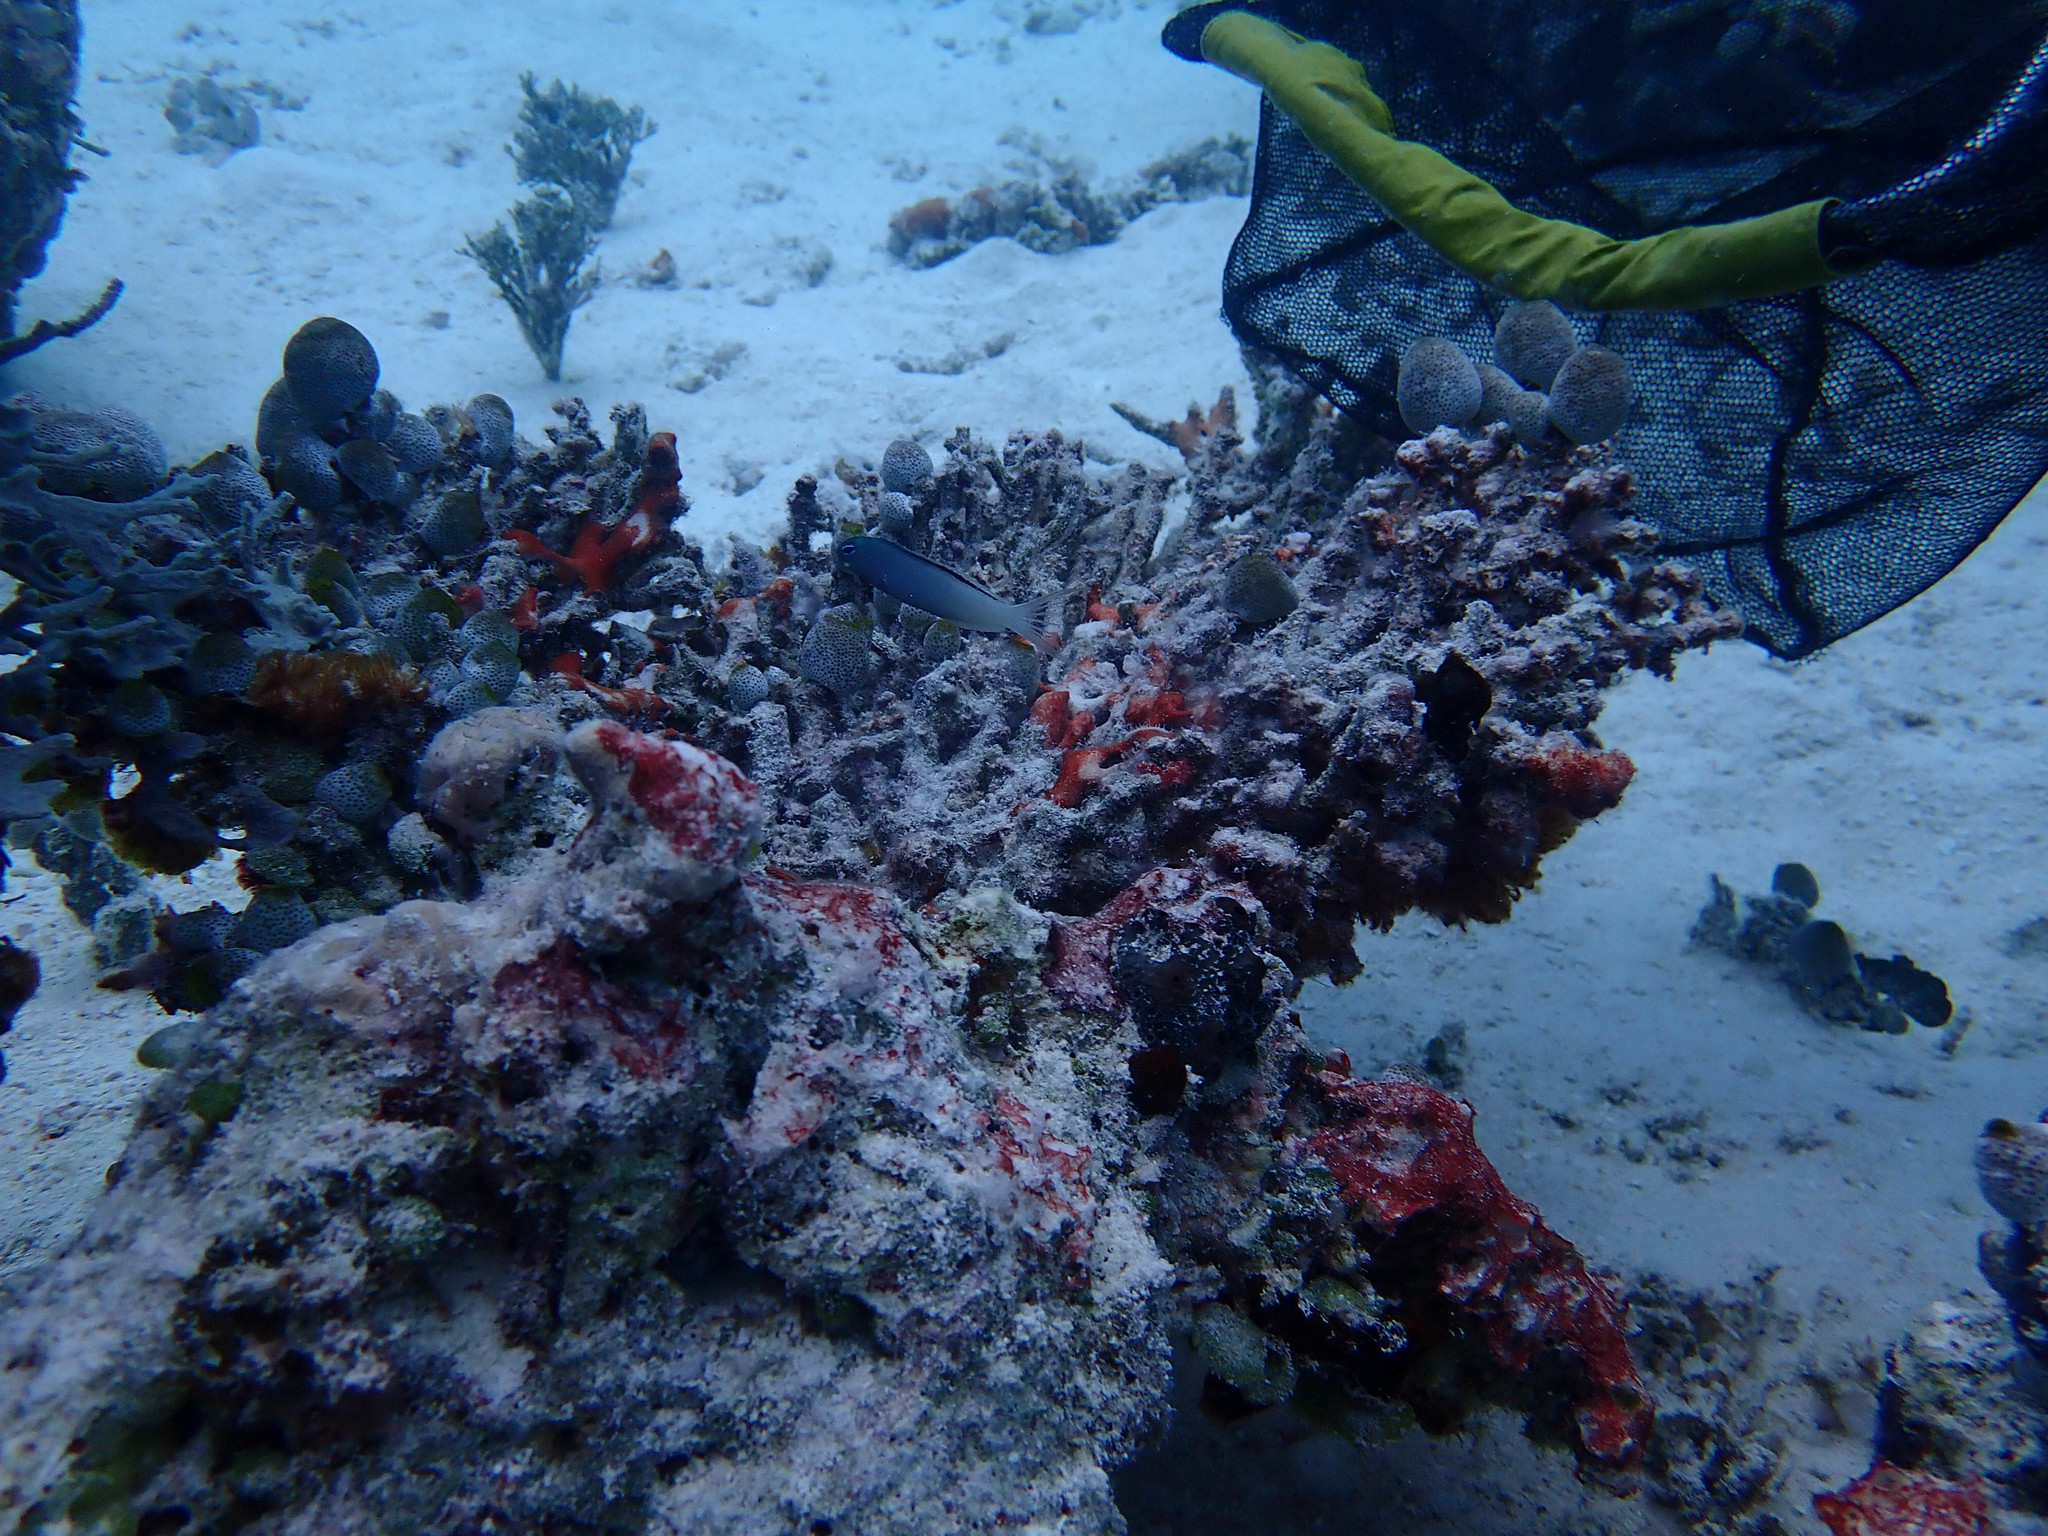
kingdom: Animalia
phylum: Chordata
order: Perciformes
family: Blenniidae
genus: Meiacanthus
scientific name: Meiacanthus atrodorsalis
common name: Eye-lash harptail-blenny
